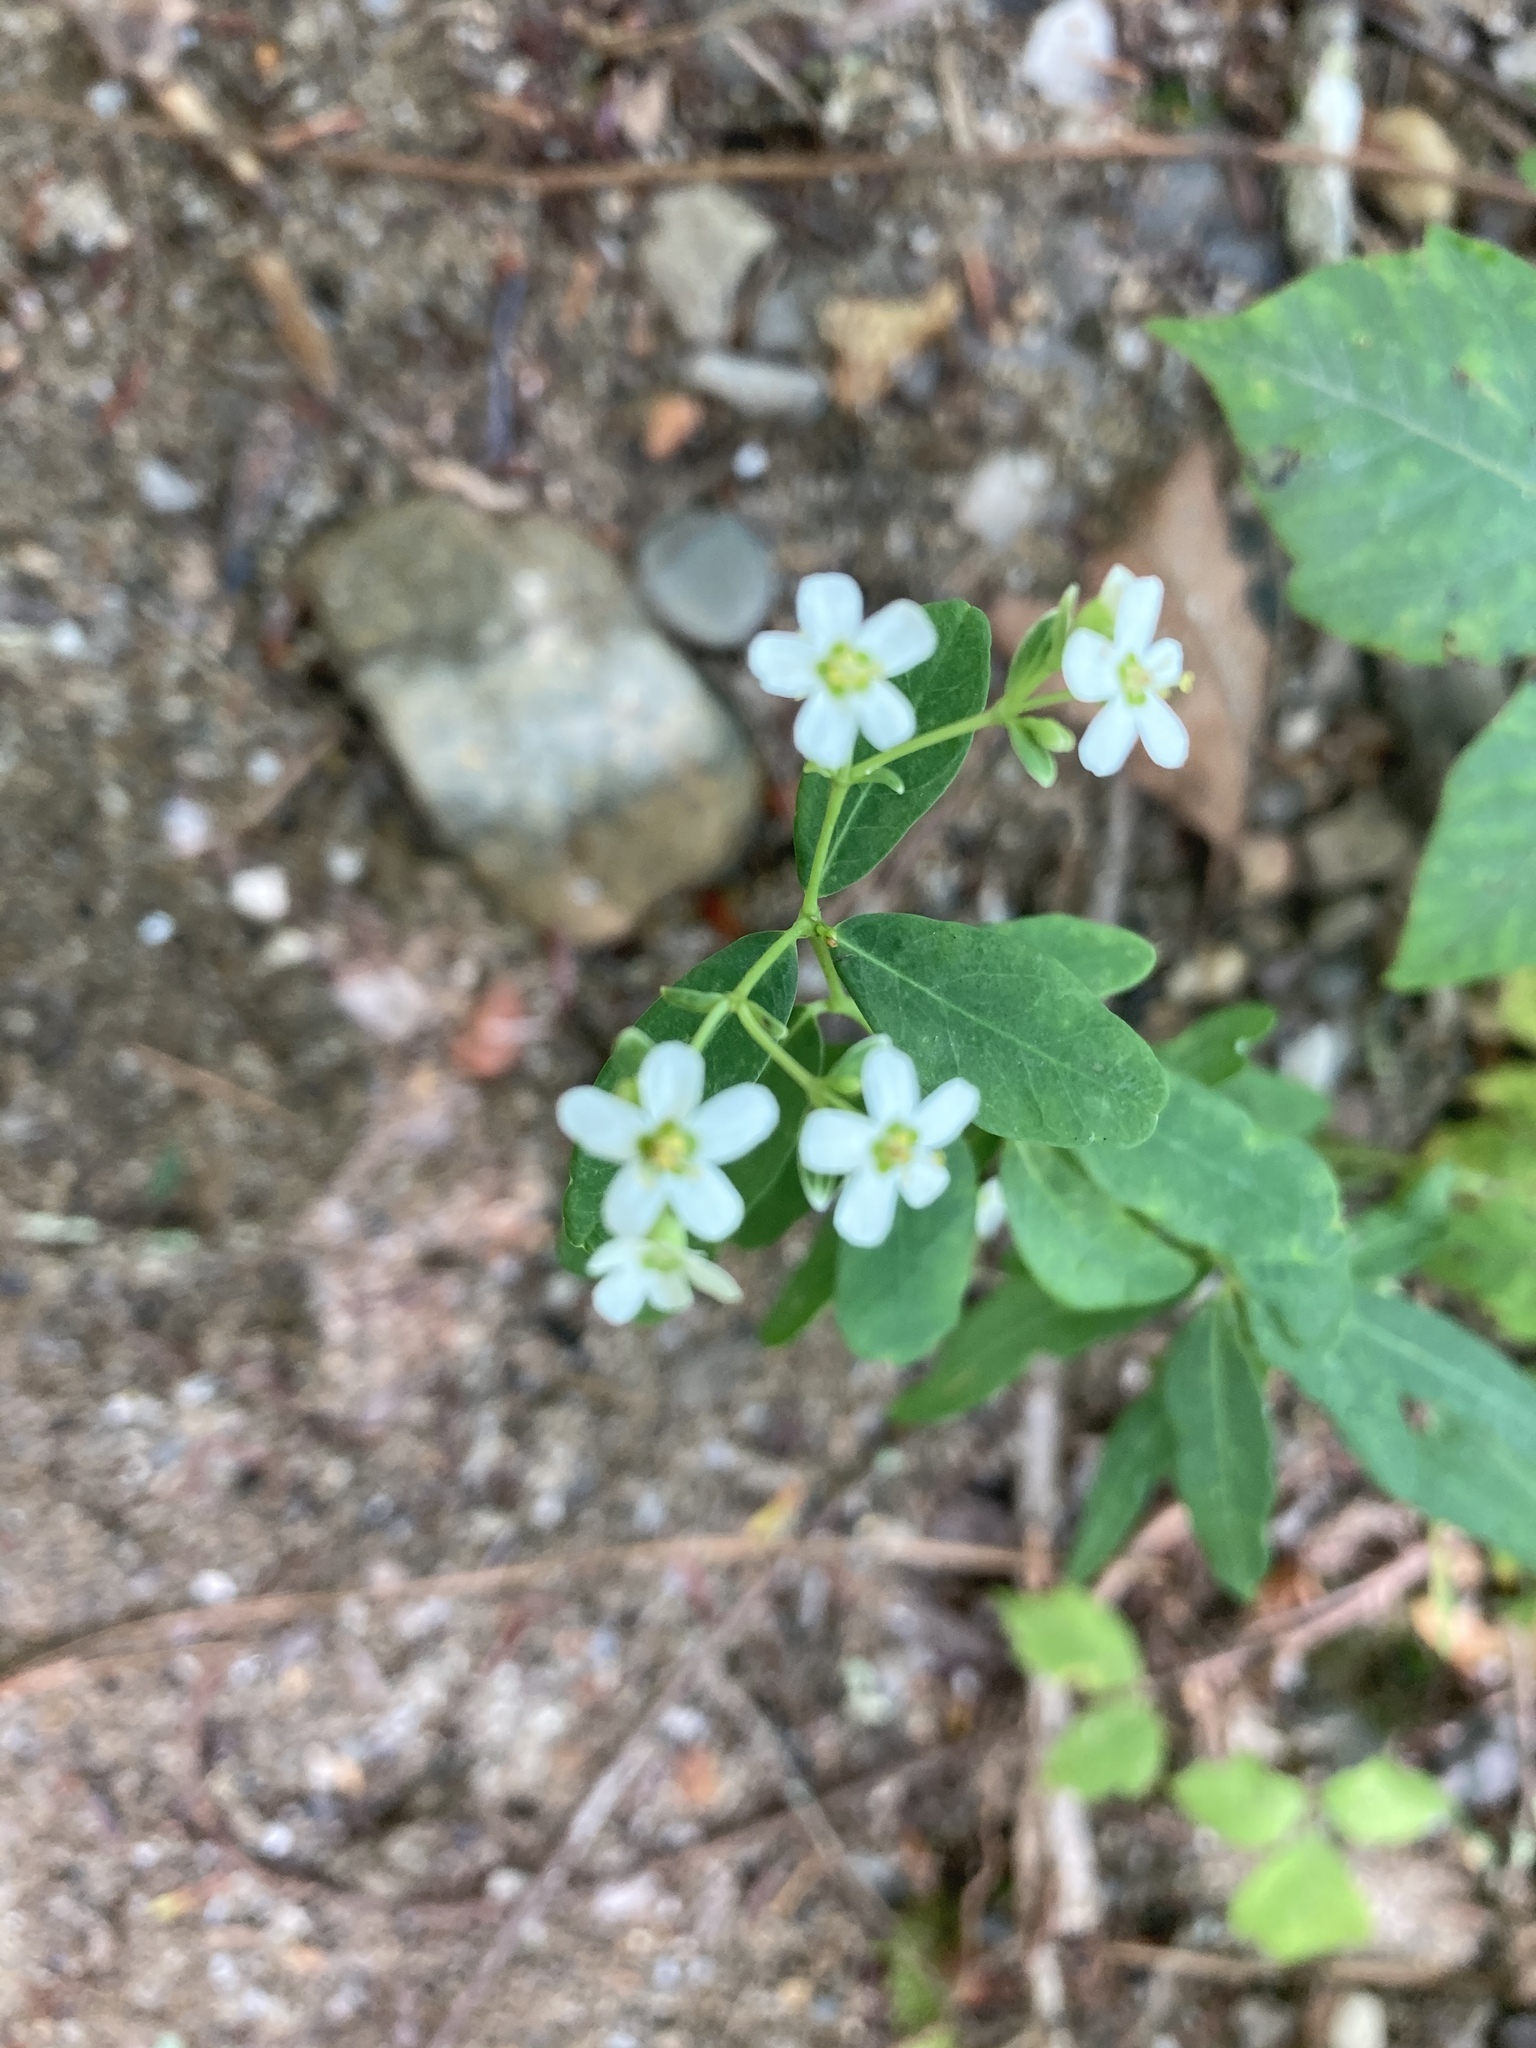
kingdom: Plantae
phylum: Tracheophyta
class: Magnoliopsida
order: Malpighiales
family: Euphorbiaceae
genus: Euphorbia
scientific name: Euphorbia corollata
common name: Flowering spurge
